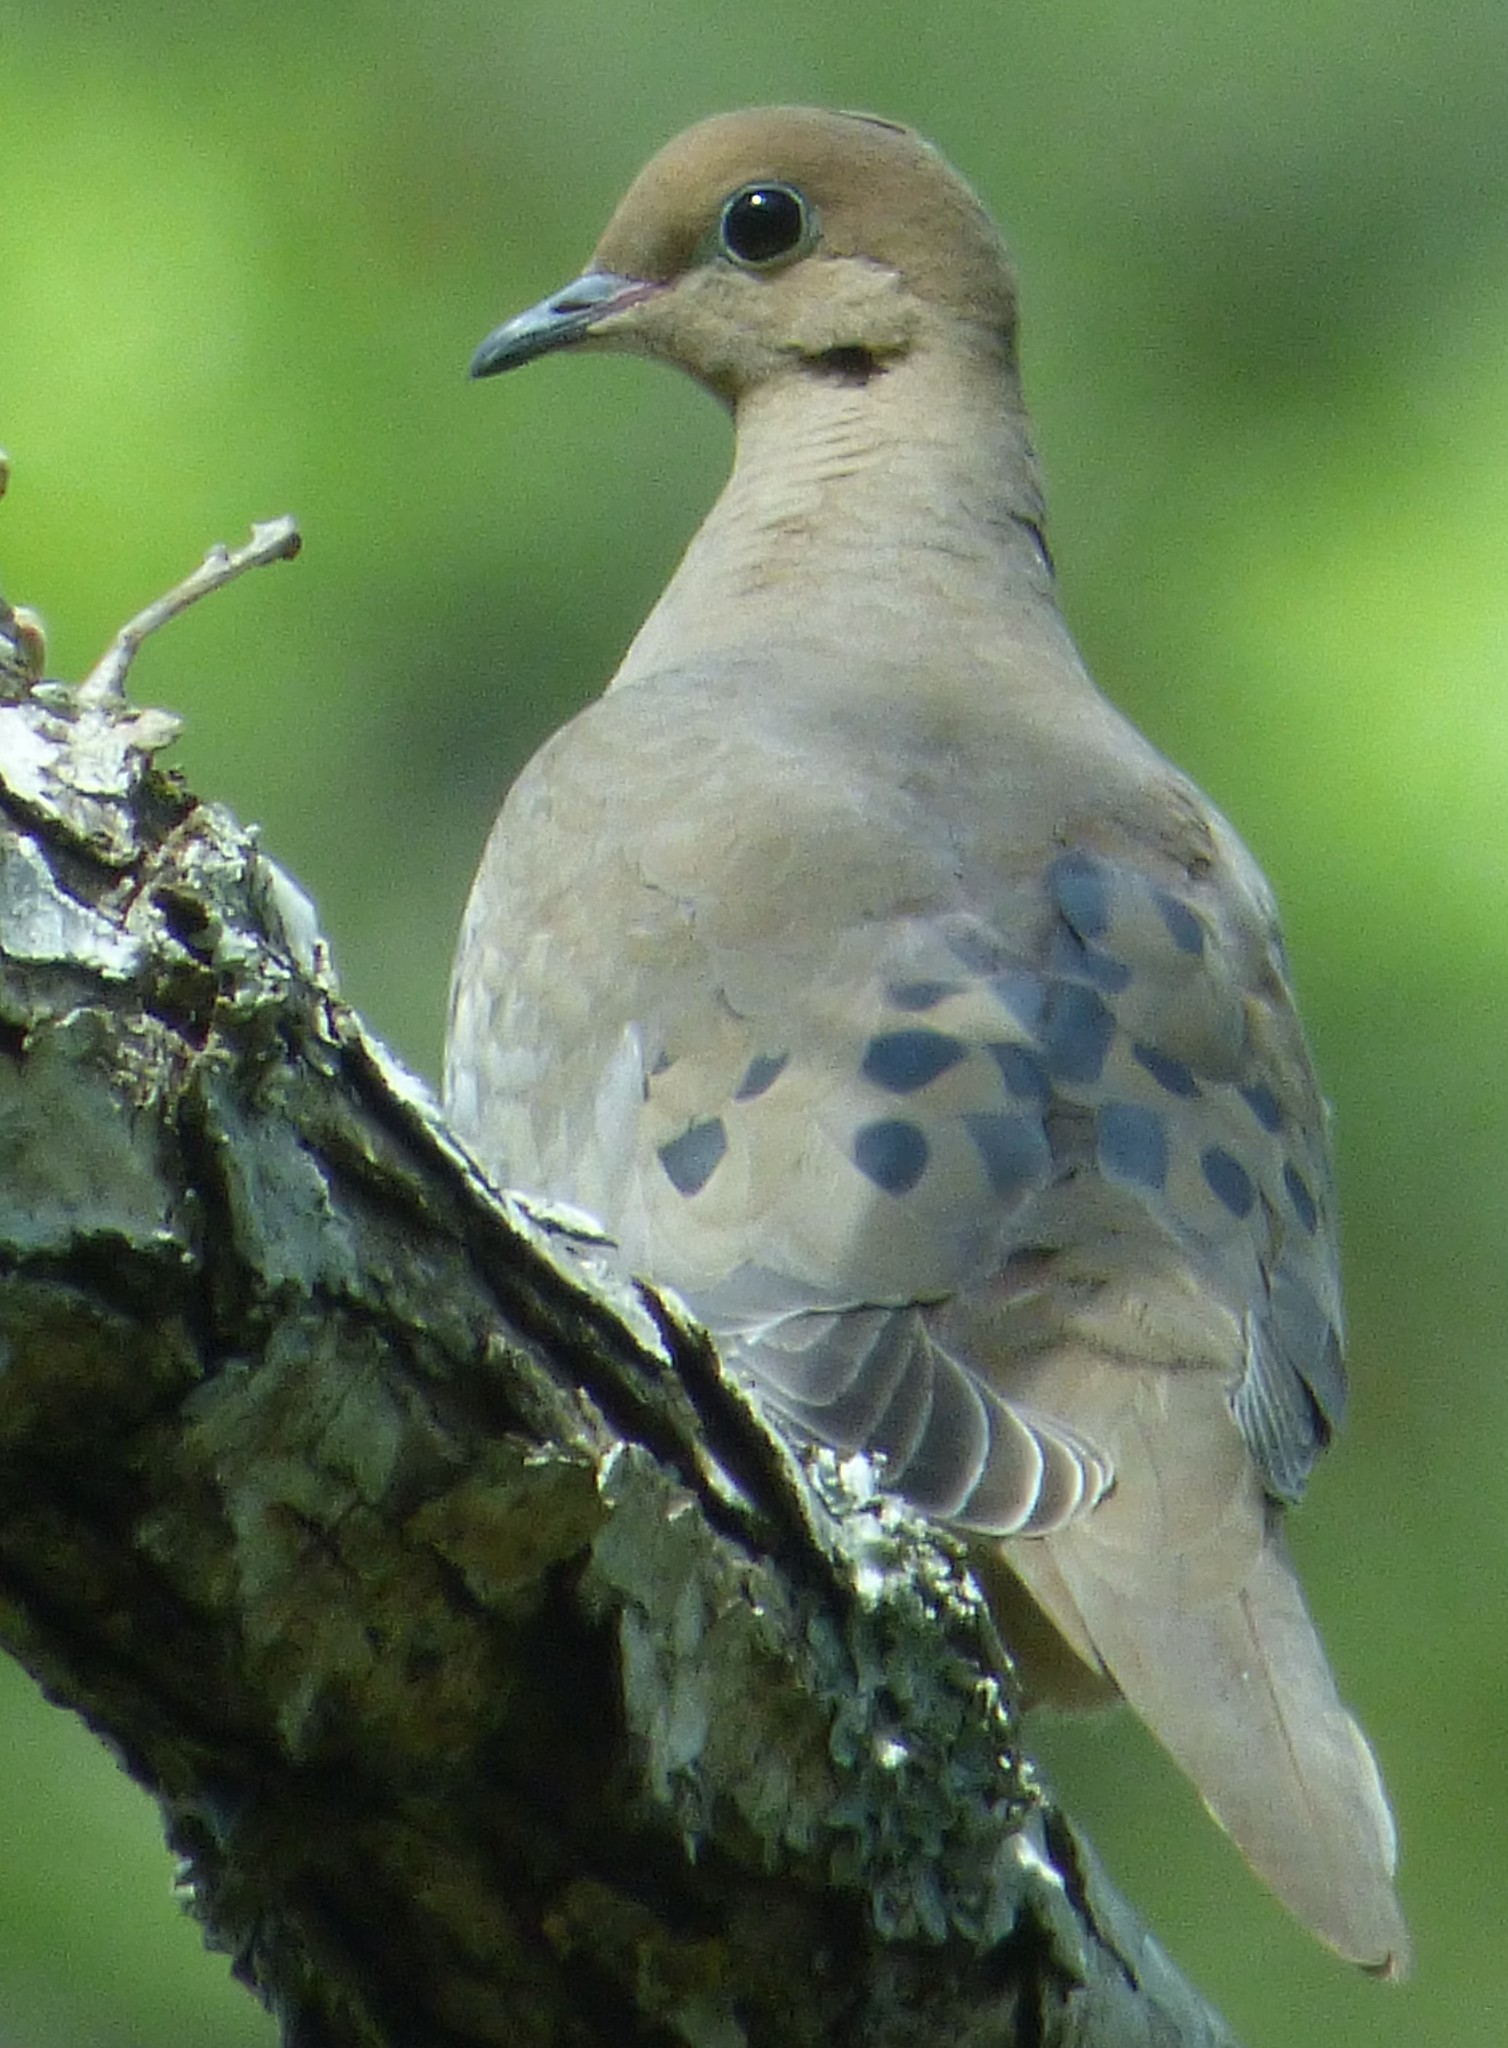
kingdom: Animalia
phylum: Chordata
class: Aves
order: Columbiformes
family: Columbidae
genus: Zenaida
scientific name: Zenaida macroura
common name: Mourning dove
